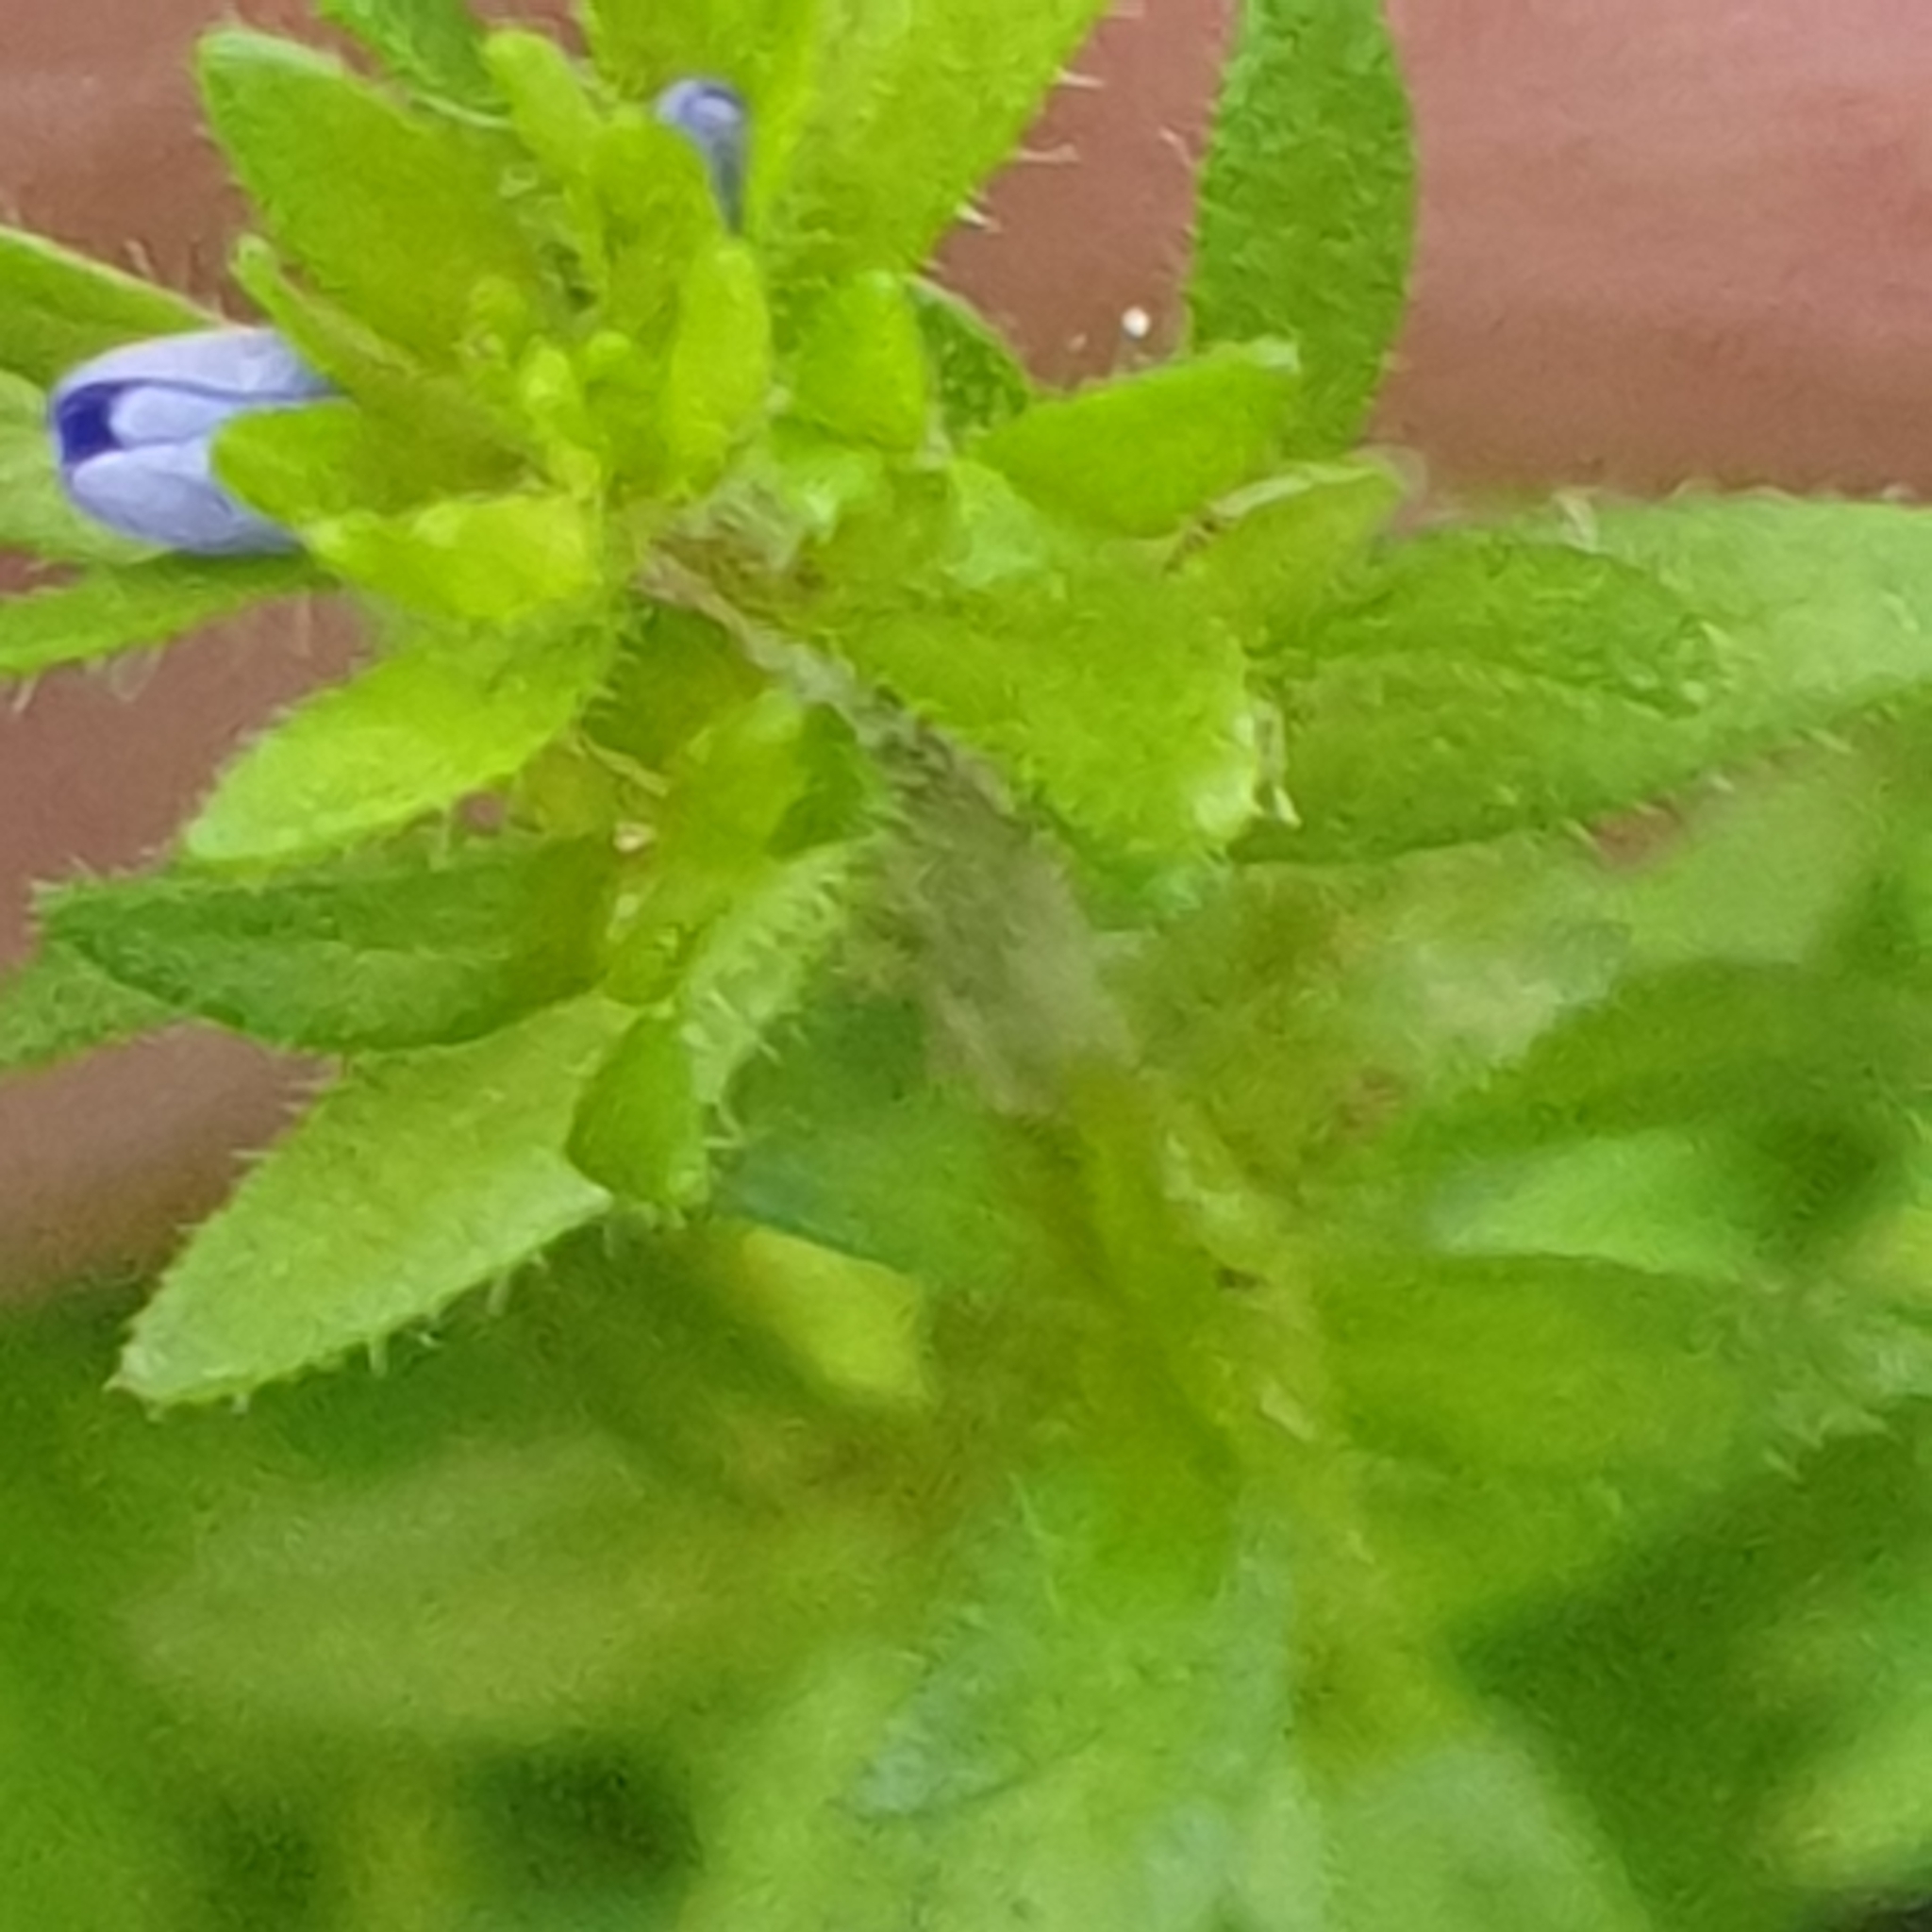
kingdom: Plantae
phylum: Tracheophyta
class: Magnoliopsida
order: Lamiales
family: Plantaginaceae
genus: Veronica
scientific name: Veronica arvensis
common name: Corn speedwell
